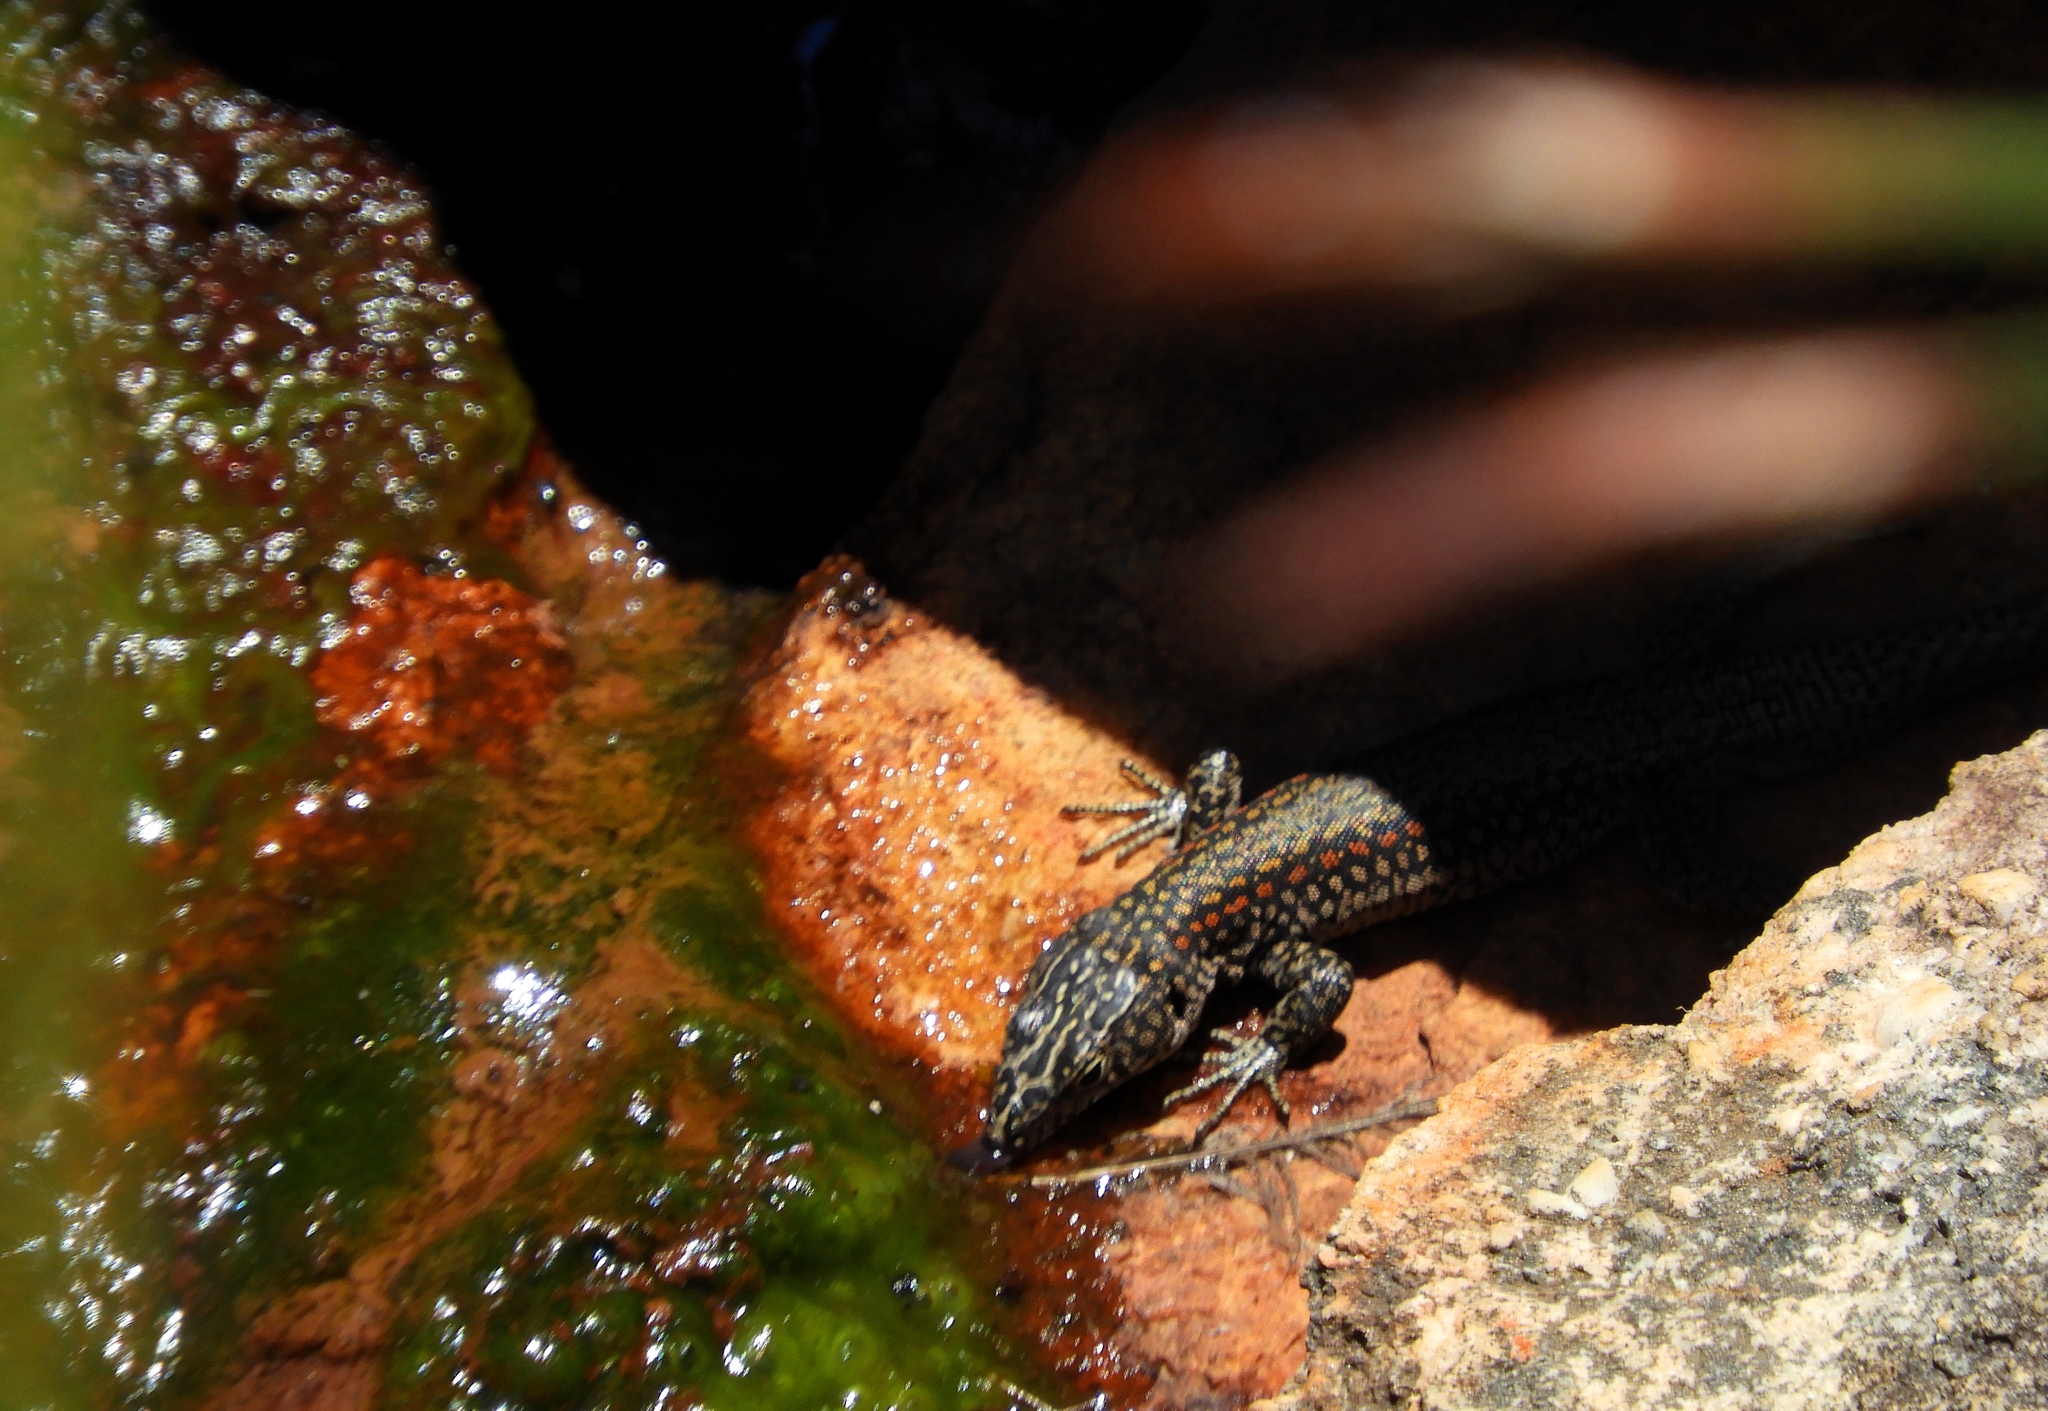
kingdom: Animalia
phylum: Chordata
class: Squamata
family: Lacertidae
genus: Australolacerta
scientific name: Australolacerta australis
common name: Southern rock lizard
